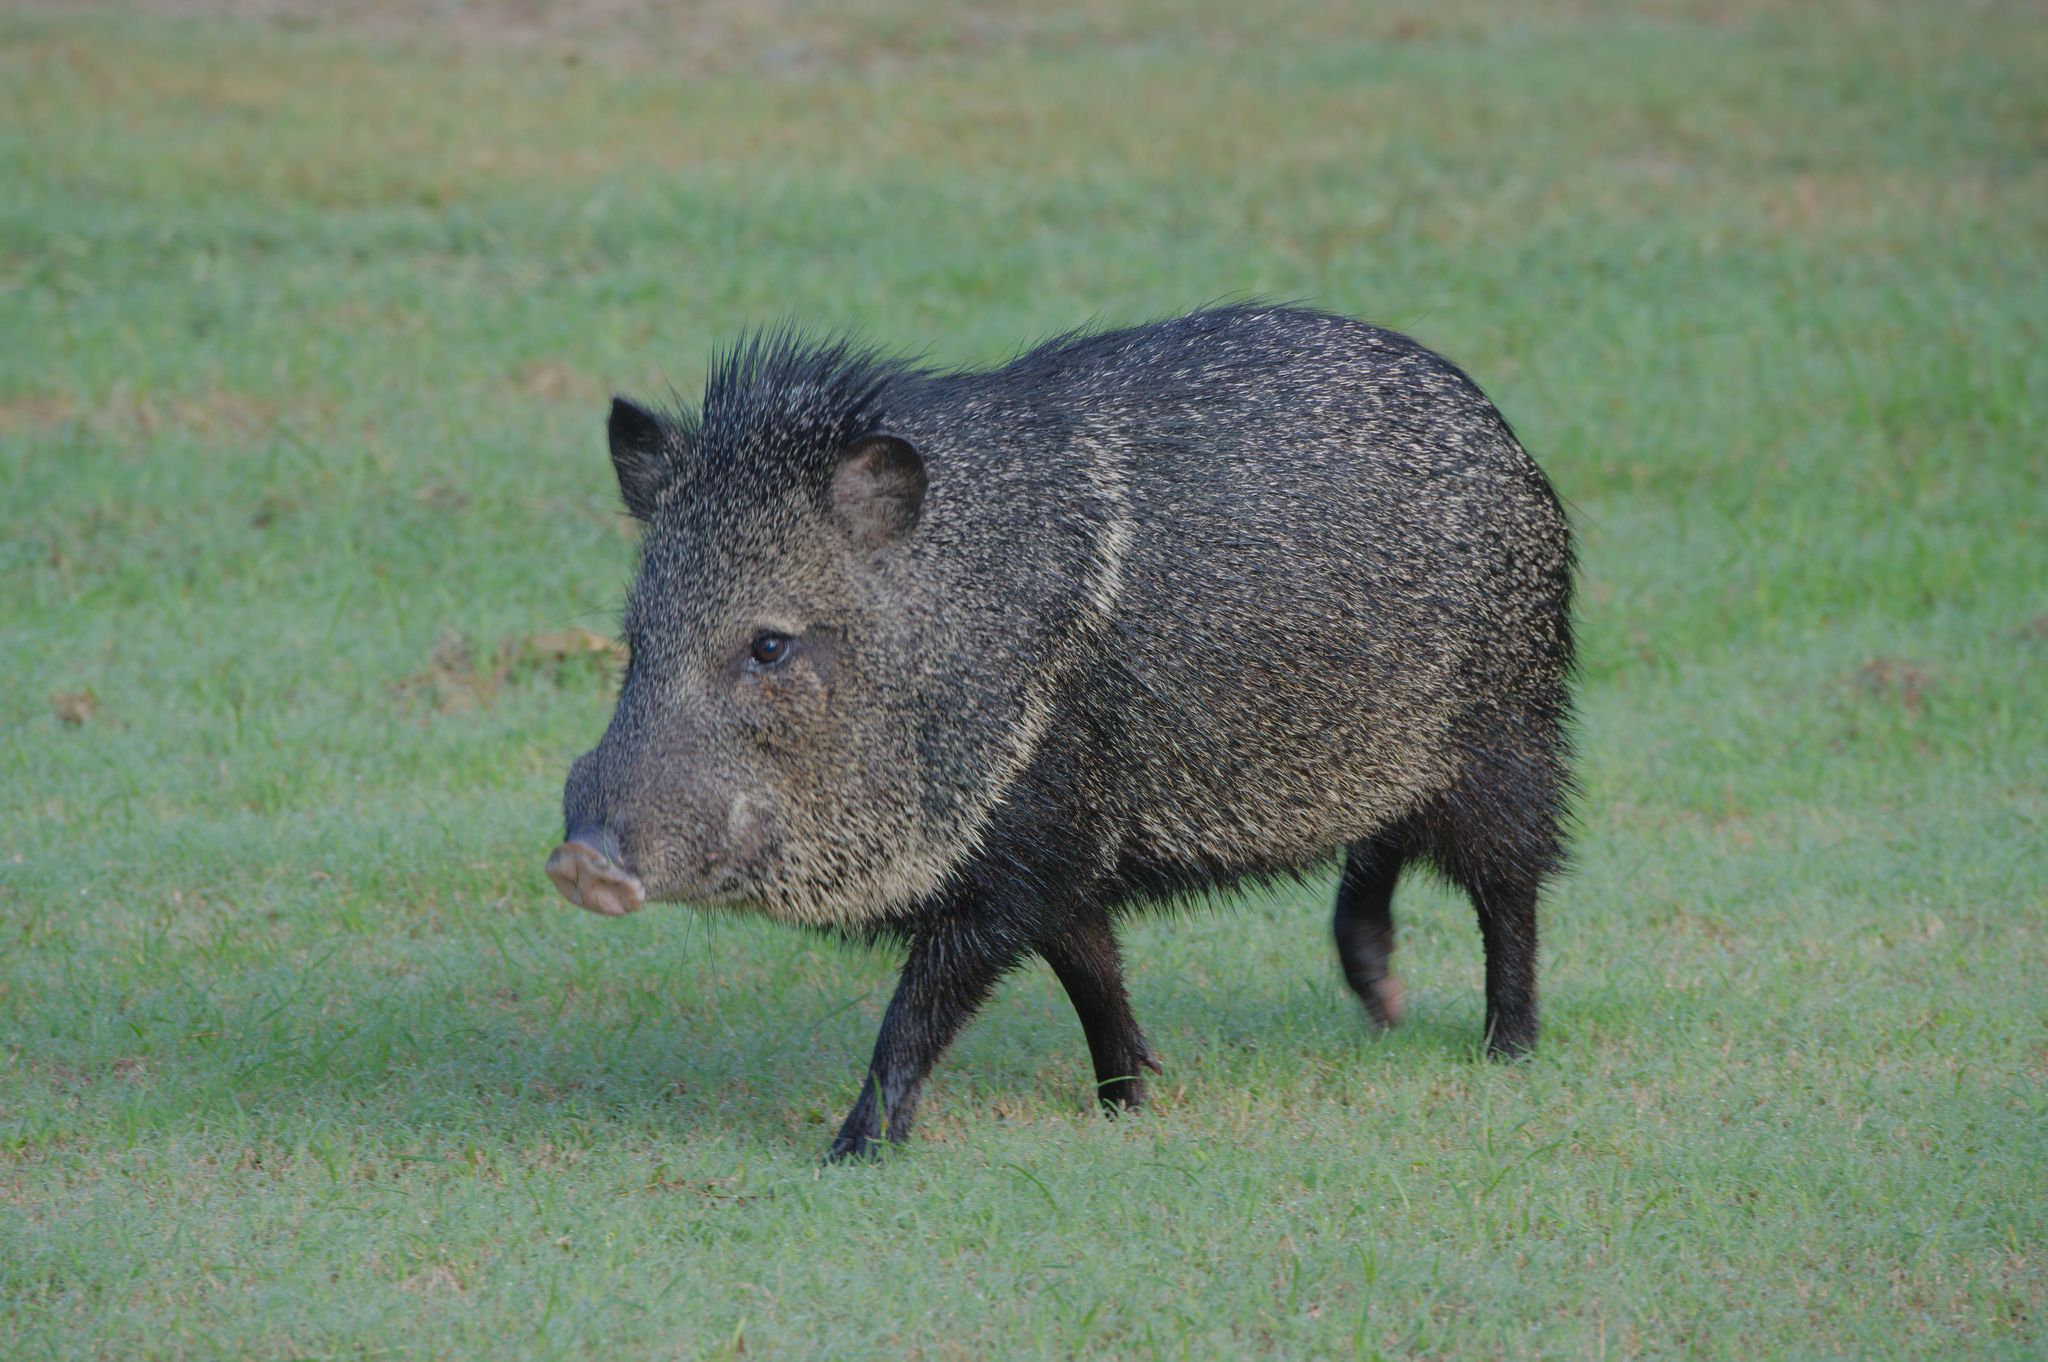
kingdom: Animalia
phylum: Chordata
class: Mammalia
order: Artiodactyla
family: Tayassuidae
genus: Pecari
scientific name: Pecari tajacu
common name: Collared peccary
